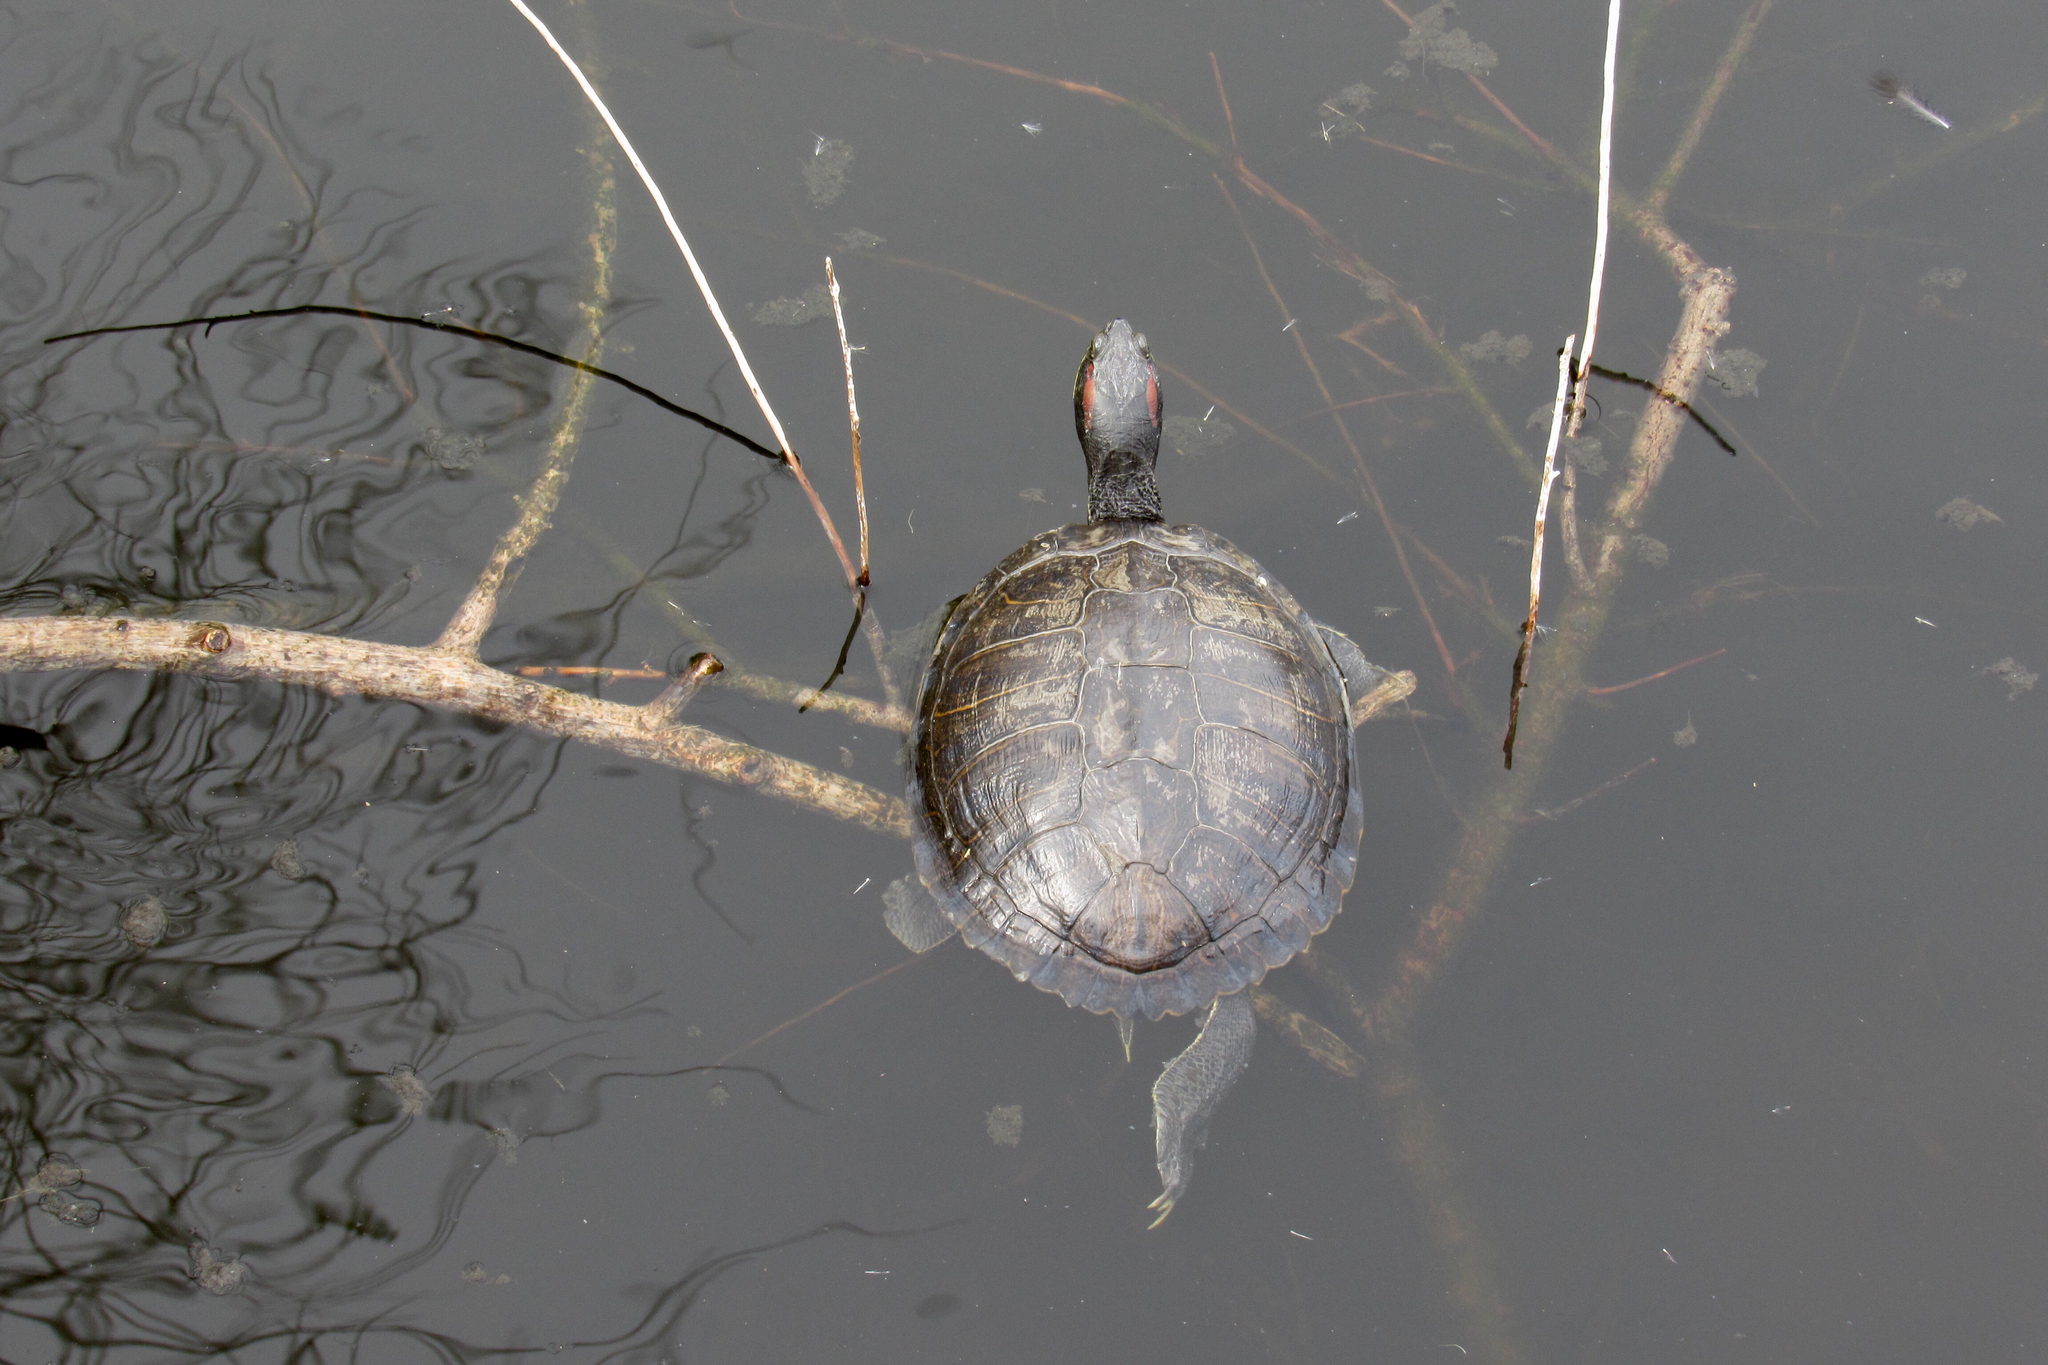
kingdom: Animalia
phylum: Chordata
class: Testudines
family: Emydidae
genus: Trachemys
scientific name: Trachemys scripta
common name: Slider
